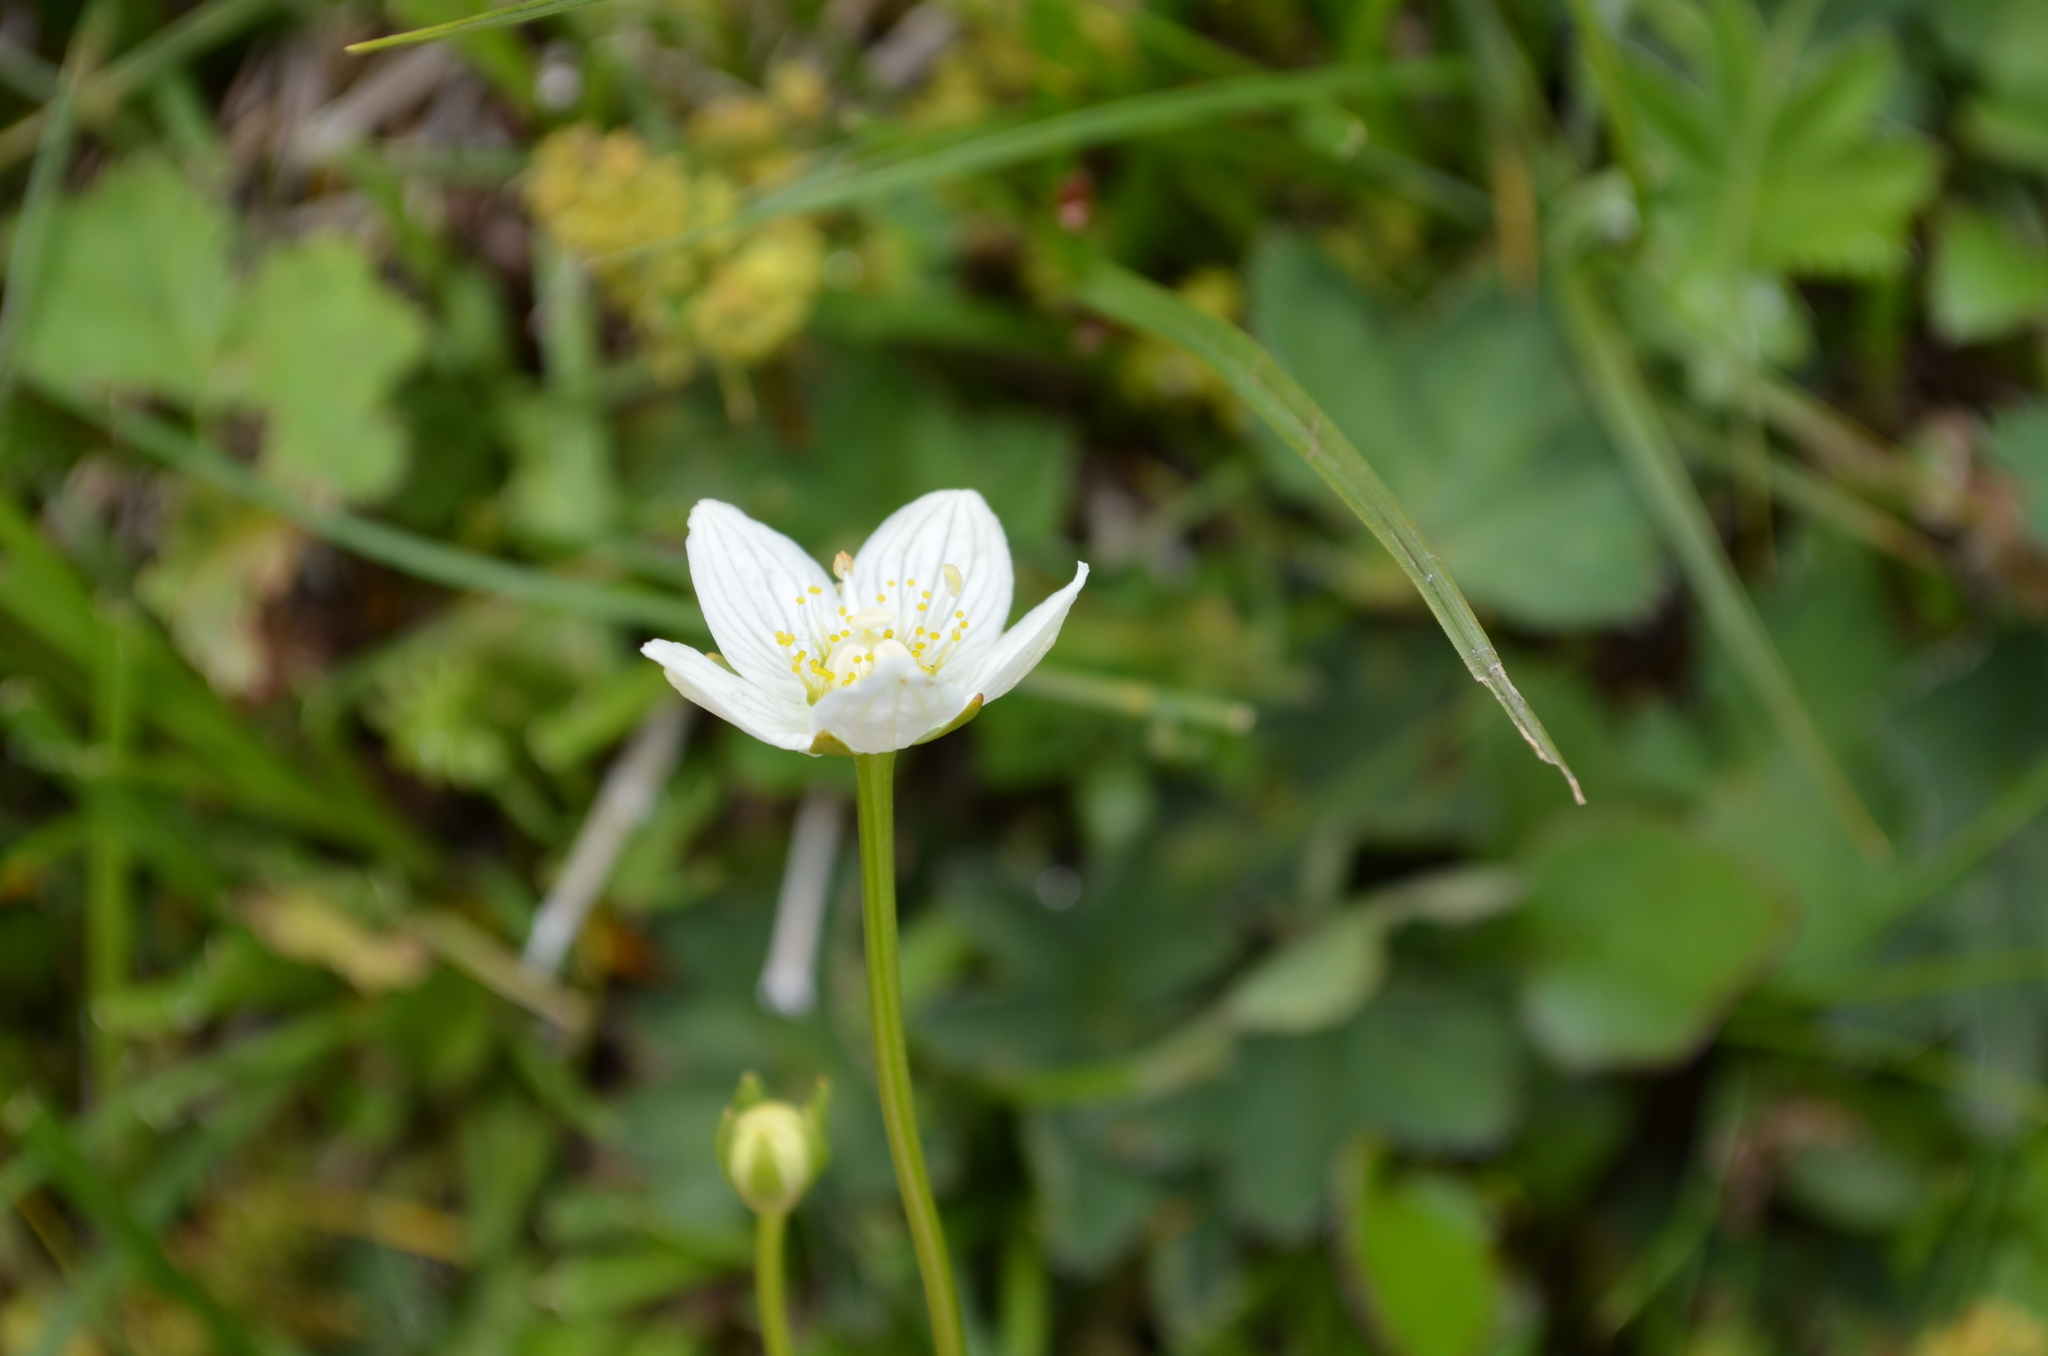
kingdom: Plantae
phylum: Tracheophyta
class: Magnoliopsida
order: Celastrales
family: Parnassiaceae
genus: Parnassia
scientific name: Parnassia palustris
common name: Grass-of-parnassus
